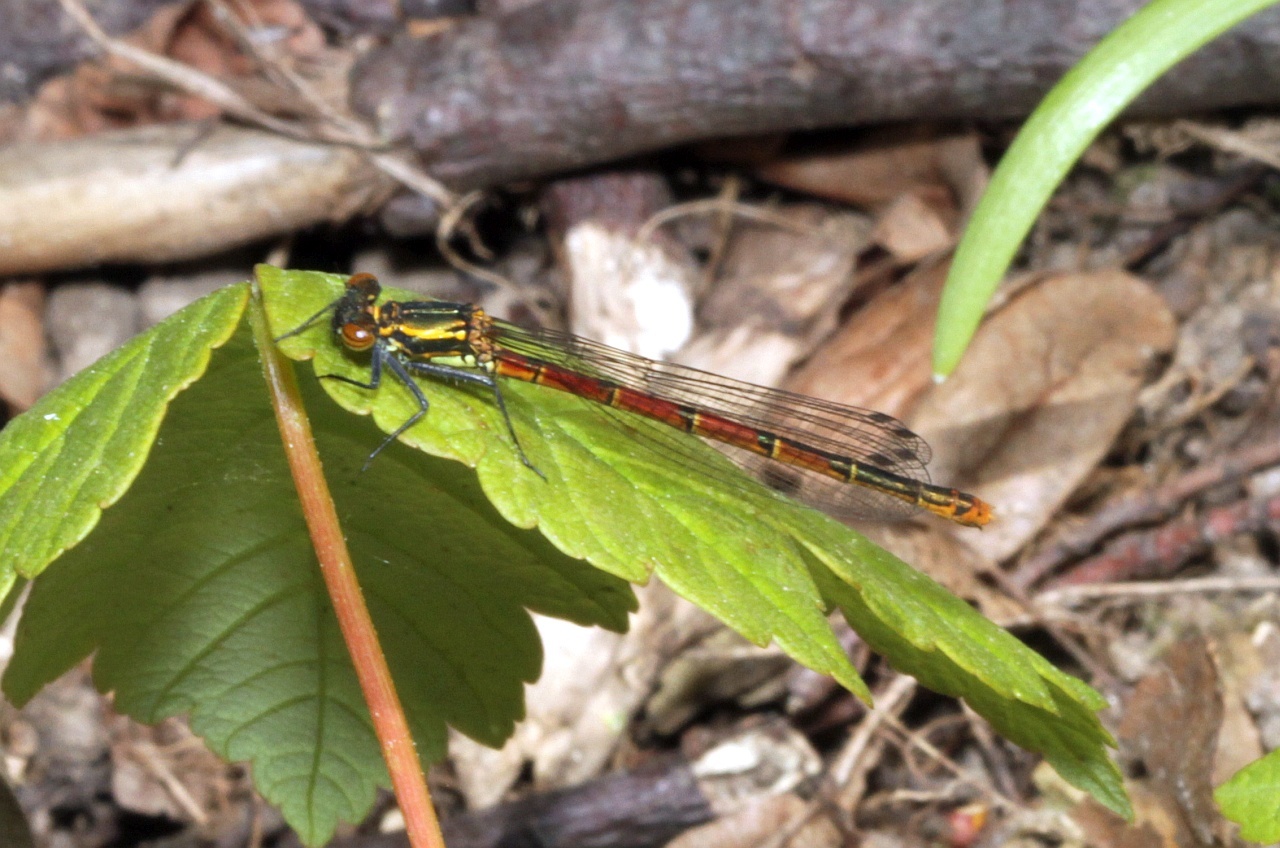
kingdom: Animalia
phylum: Arthropoda
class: Insecta
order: Odonata
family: Coenagrionidae
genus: Pyrrhosoma
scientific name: Pyrrhosoma nymphula
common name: Large red damsel
